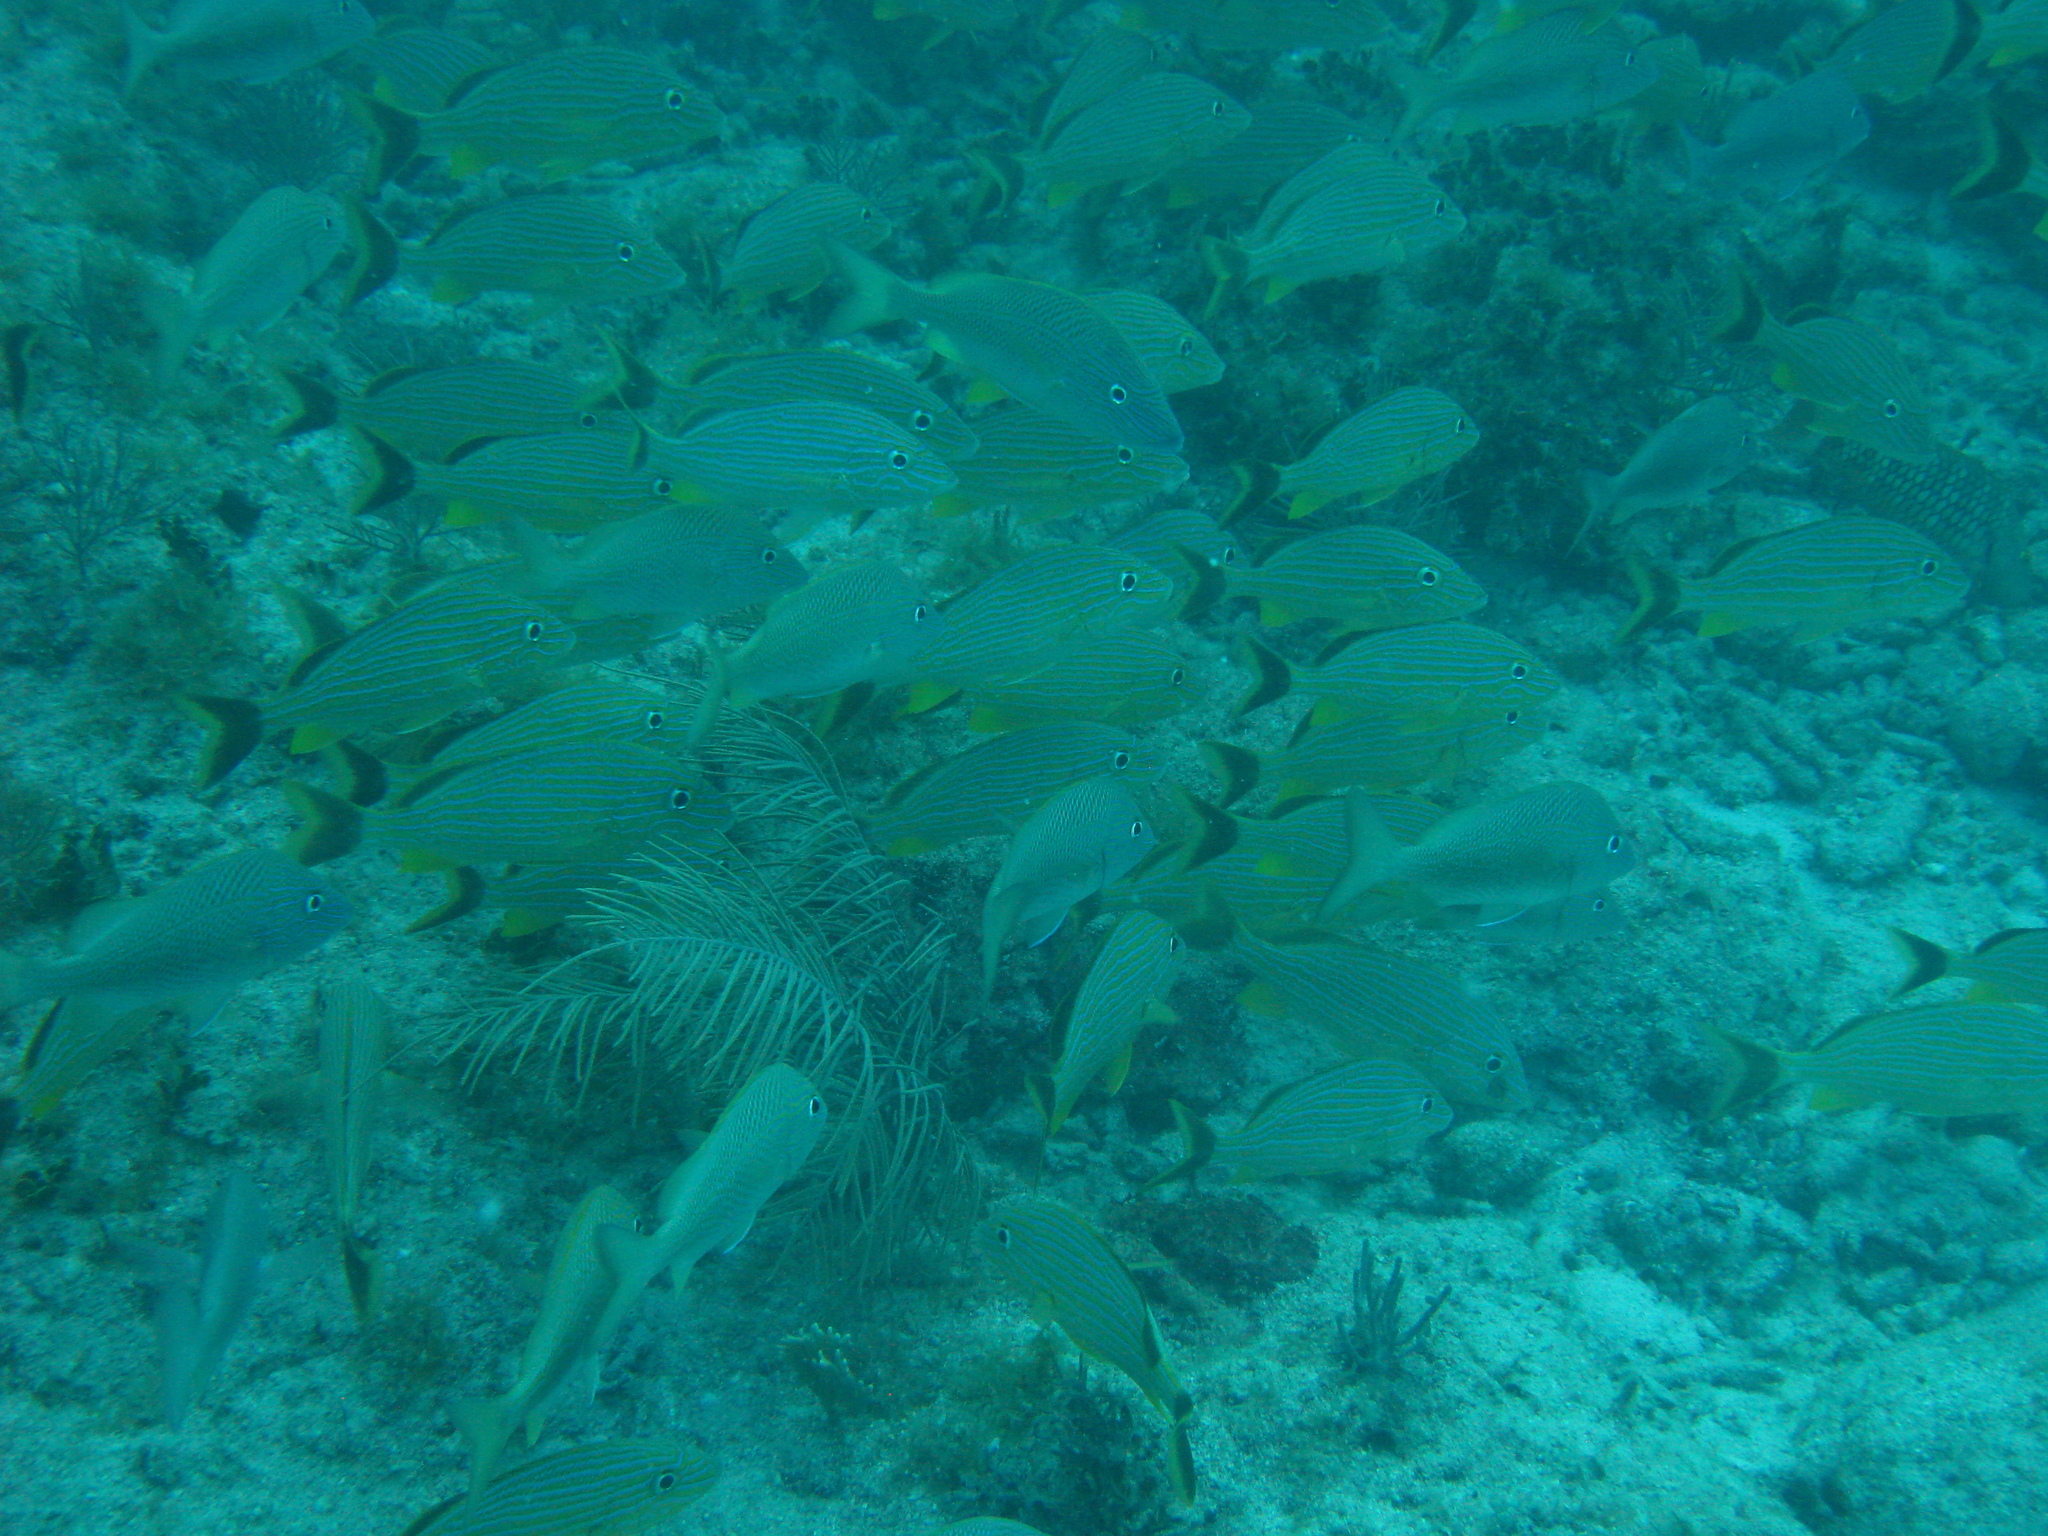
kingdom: Animalia
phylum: Chordata
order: Perciformes
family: Haemulidae
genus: Haemulon
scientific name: Haemulon sciurus
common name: Bluestriped grunt
